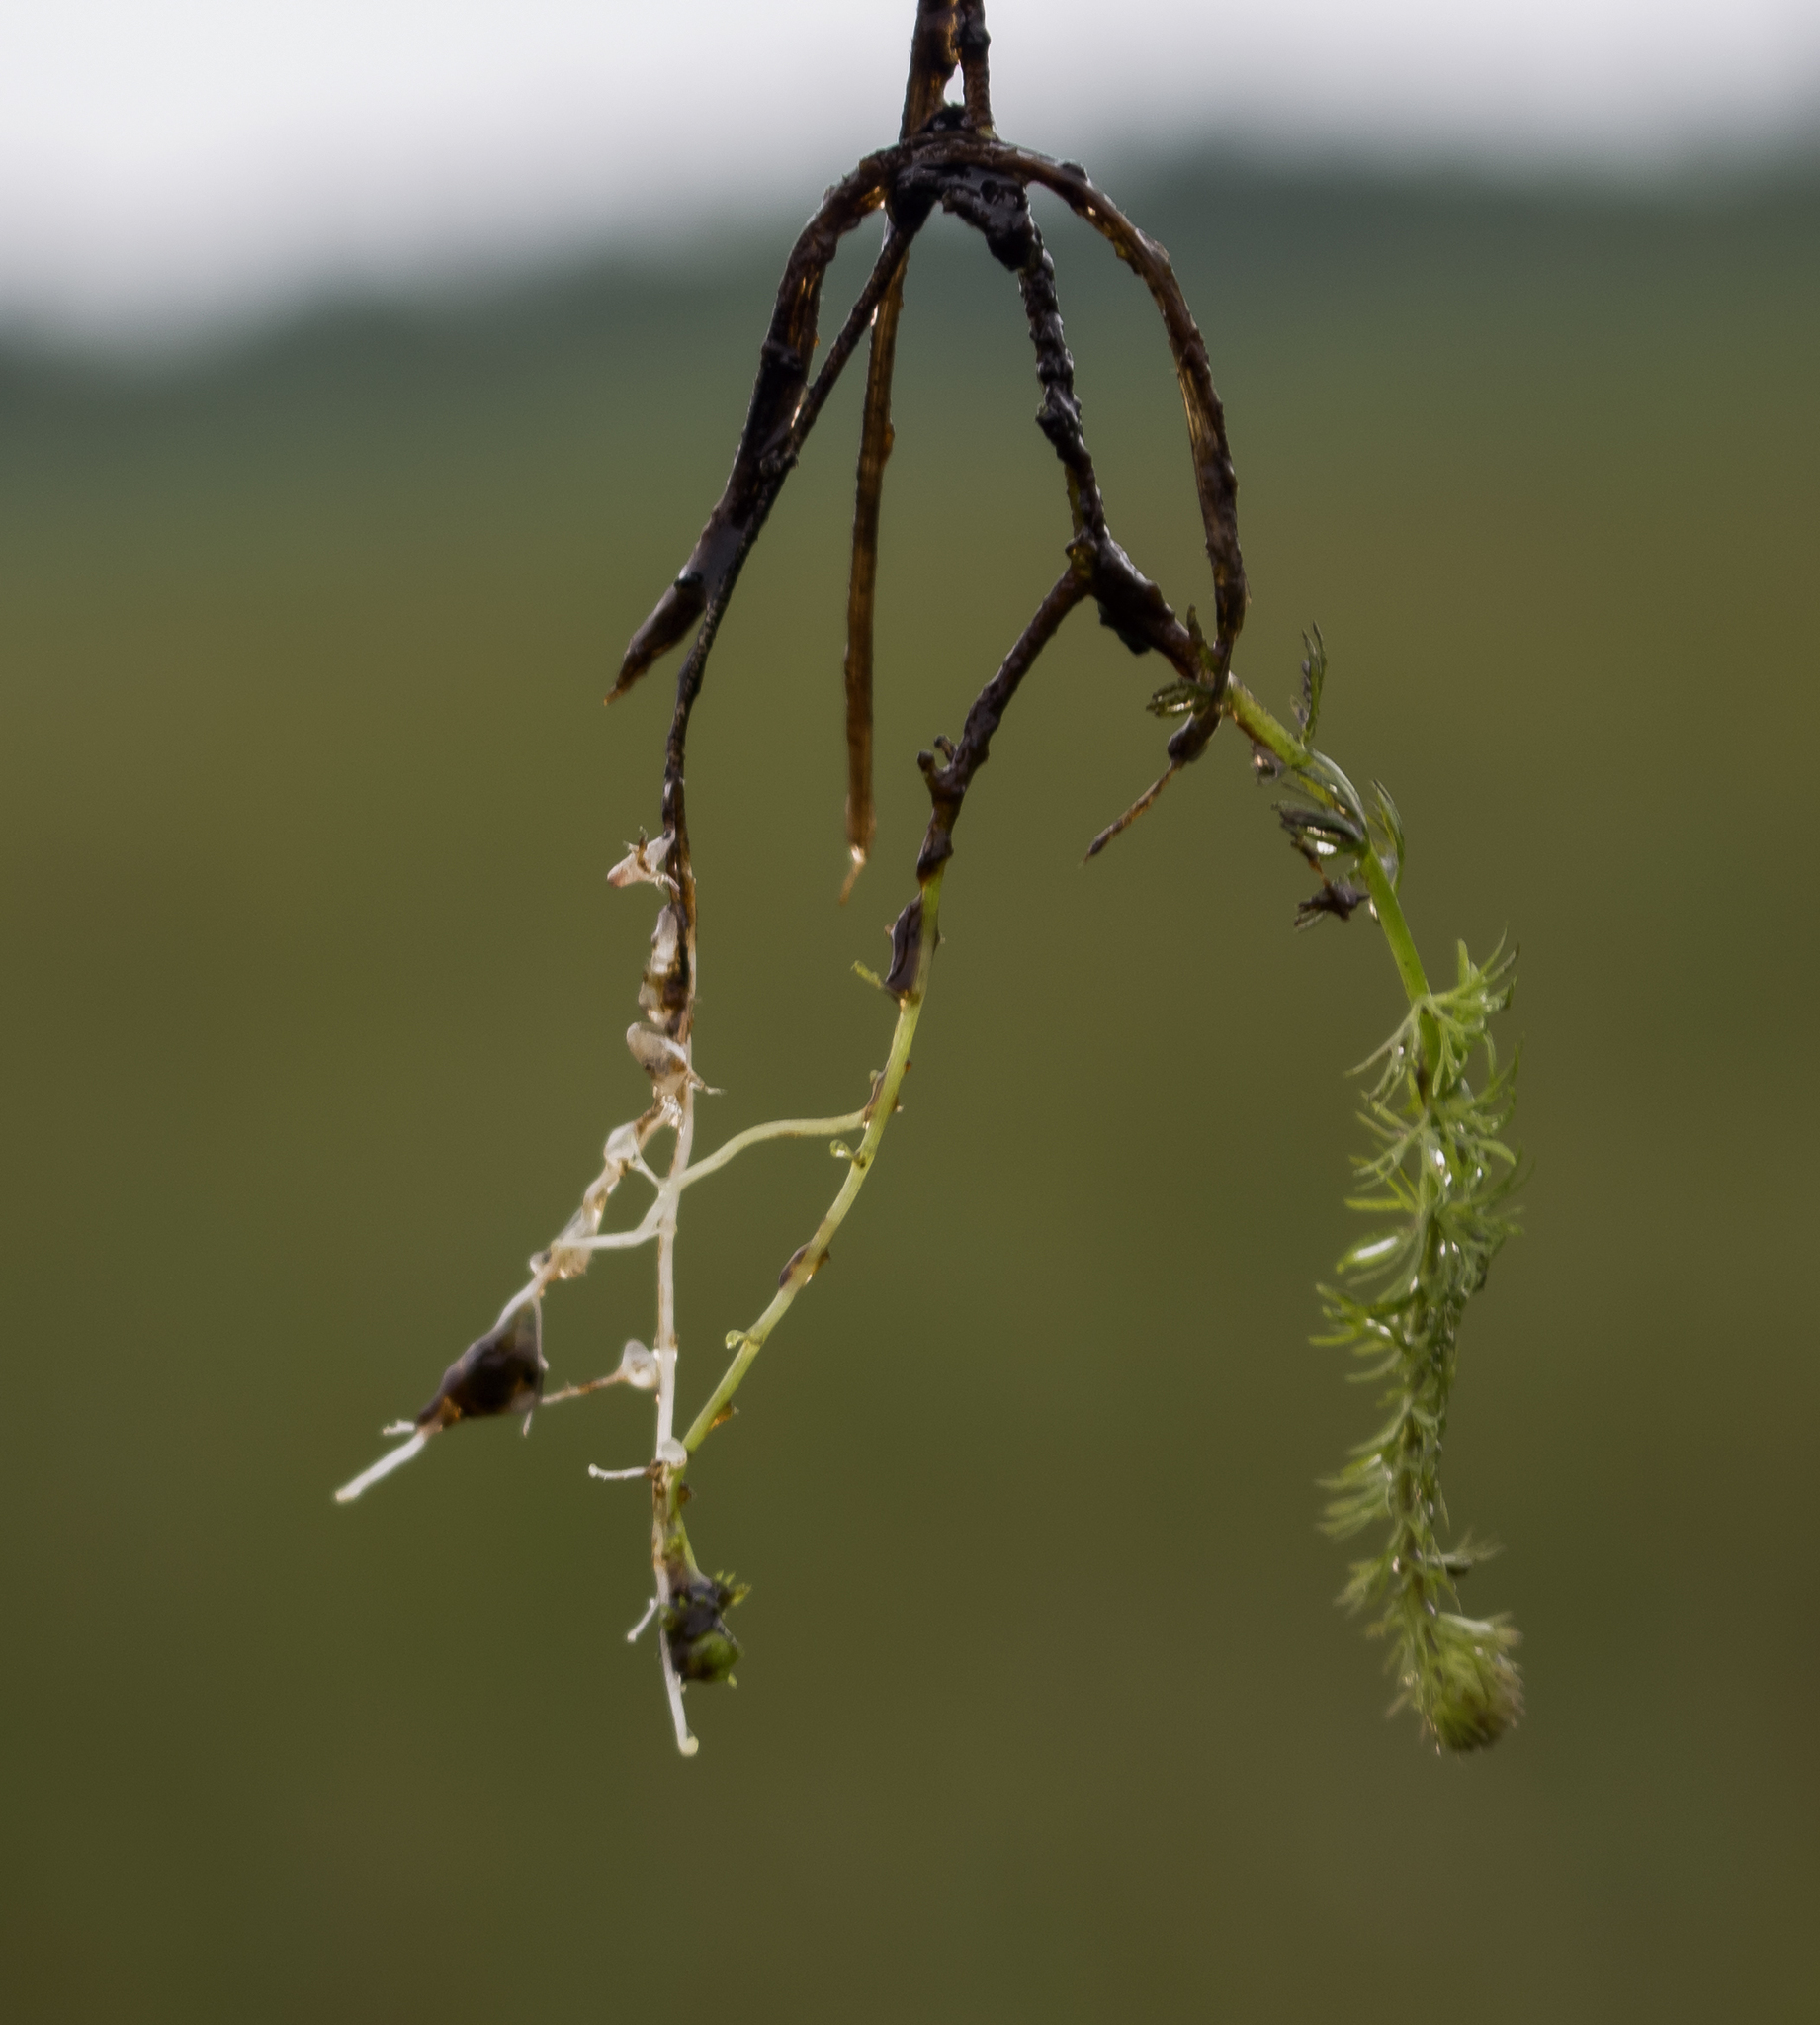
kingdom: Plantae
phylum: Tracheophyta
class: Magnoliopsida
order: Lamiales
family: Lentibulariaceae
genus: Utricularia
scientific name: Utricularia intermedia
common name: Intermediate bladderwort
